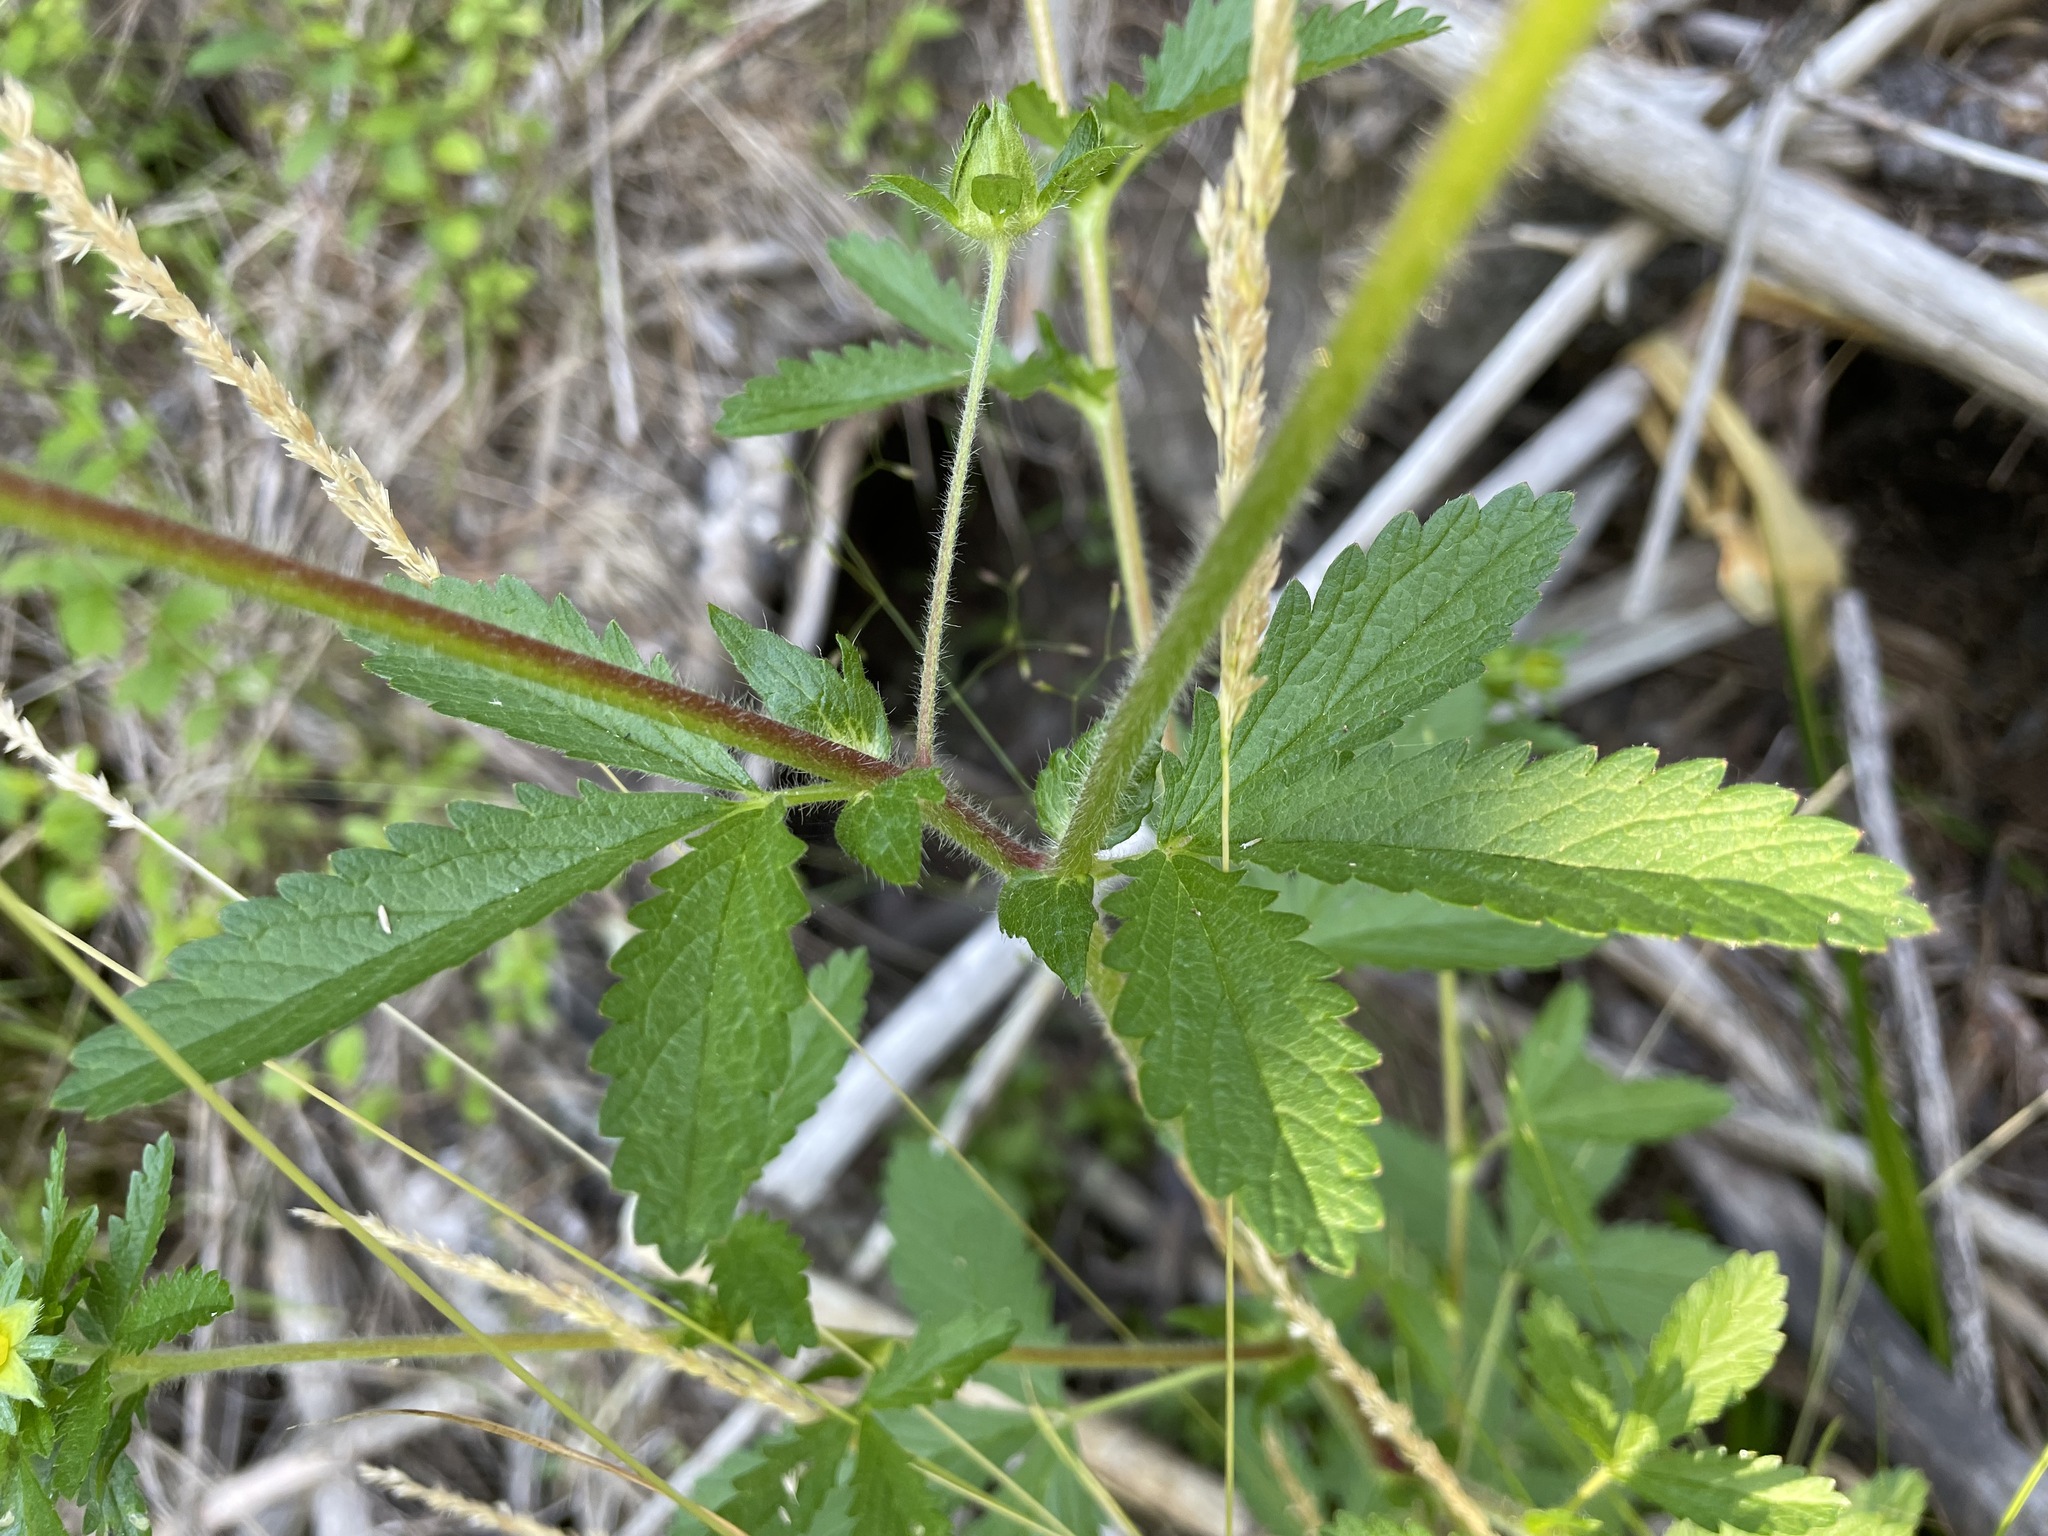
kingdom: Plantae
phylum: Tracheophyta
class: Magnoliopsida
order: Rosales
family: Rosaceae
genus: Potentilla
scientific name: Potentilla norvegica
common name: Ternate-leaved cinquefoil
